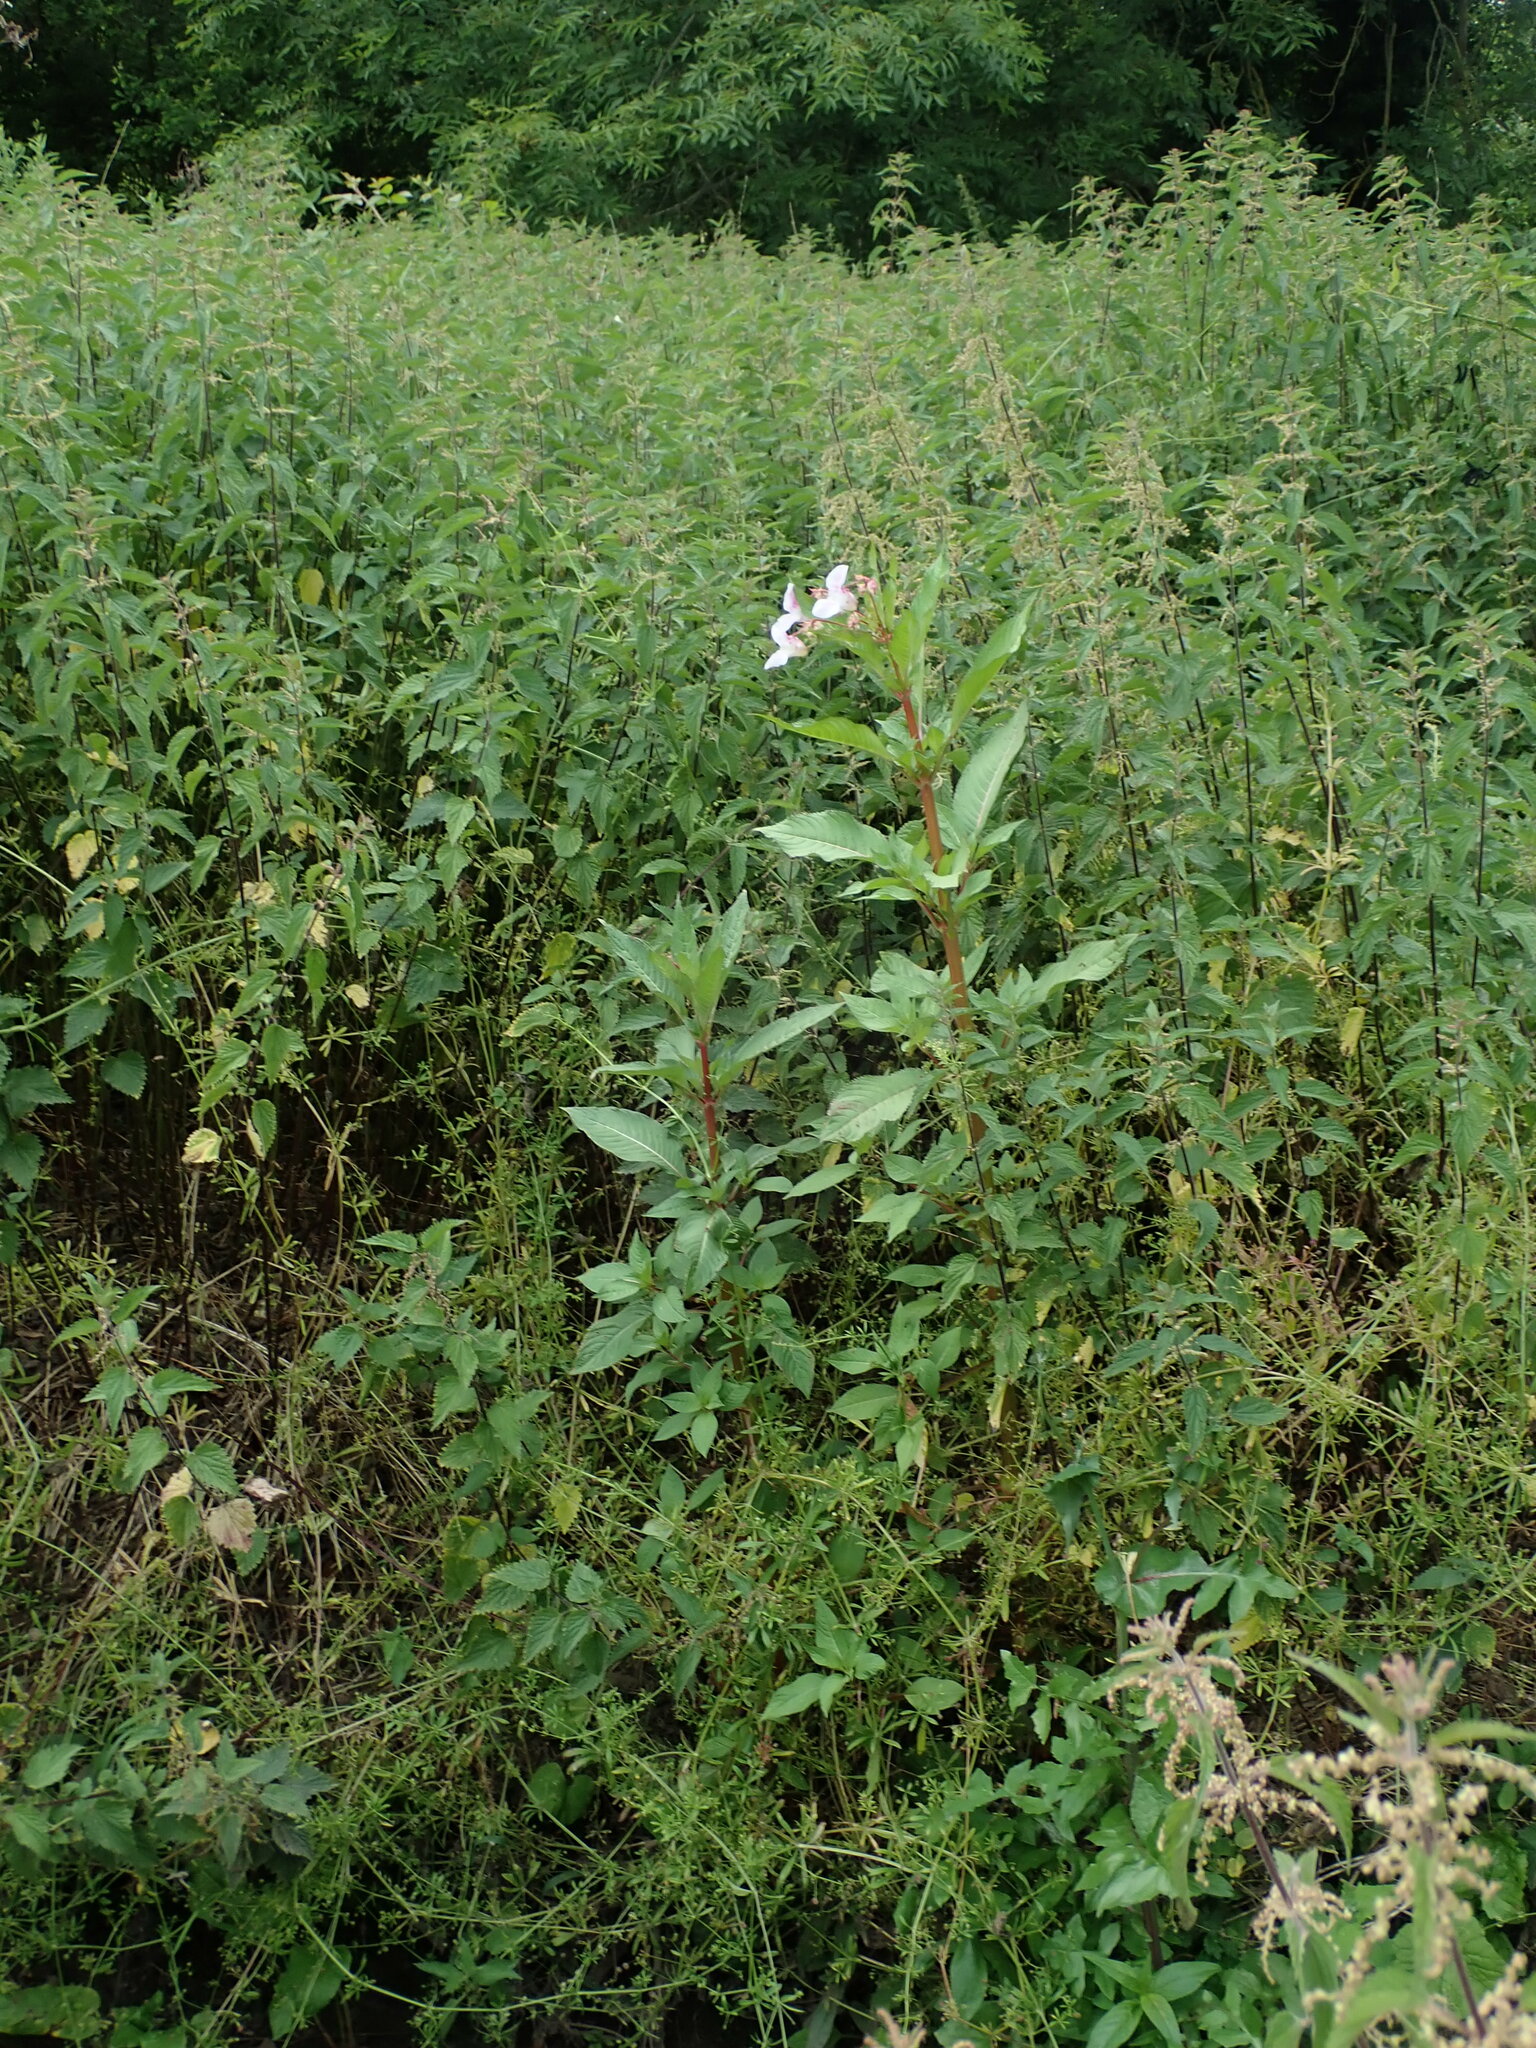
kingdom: Plantae
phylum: Tracheophyta
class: Magnoliopsida
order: Ericales
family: Balsaminaceae
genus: Impatiens
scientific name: Impatiens glandulifera
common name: Himalayan balsam
